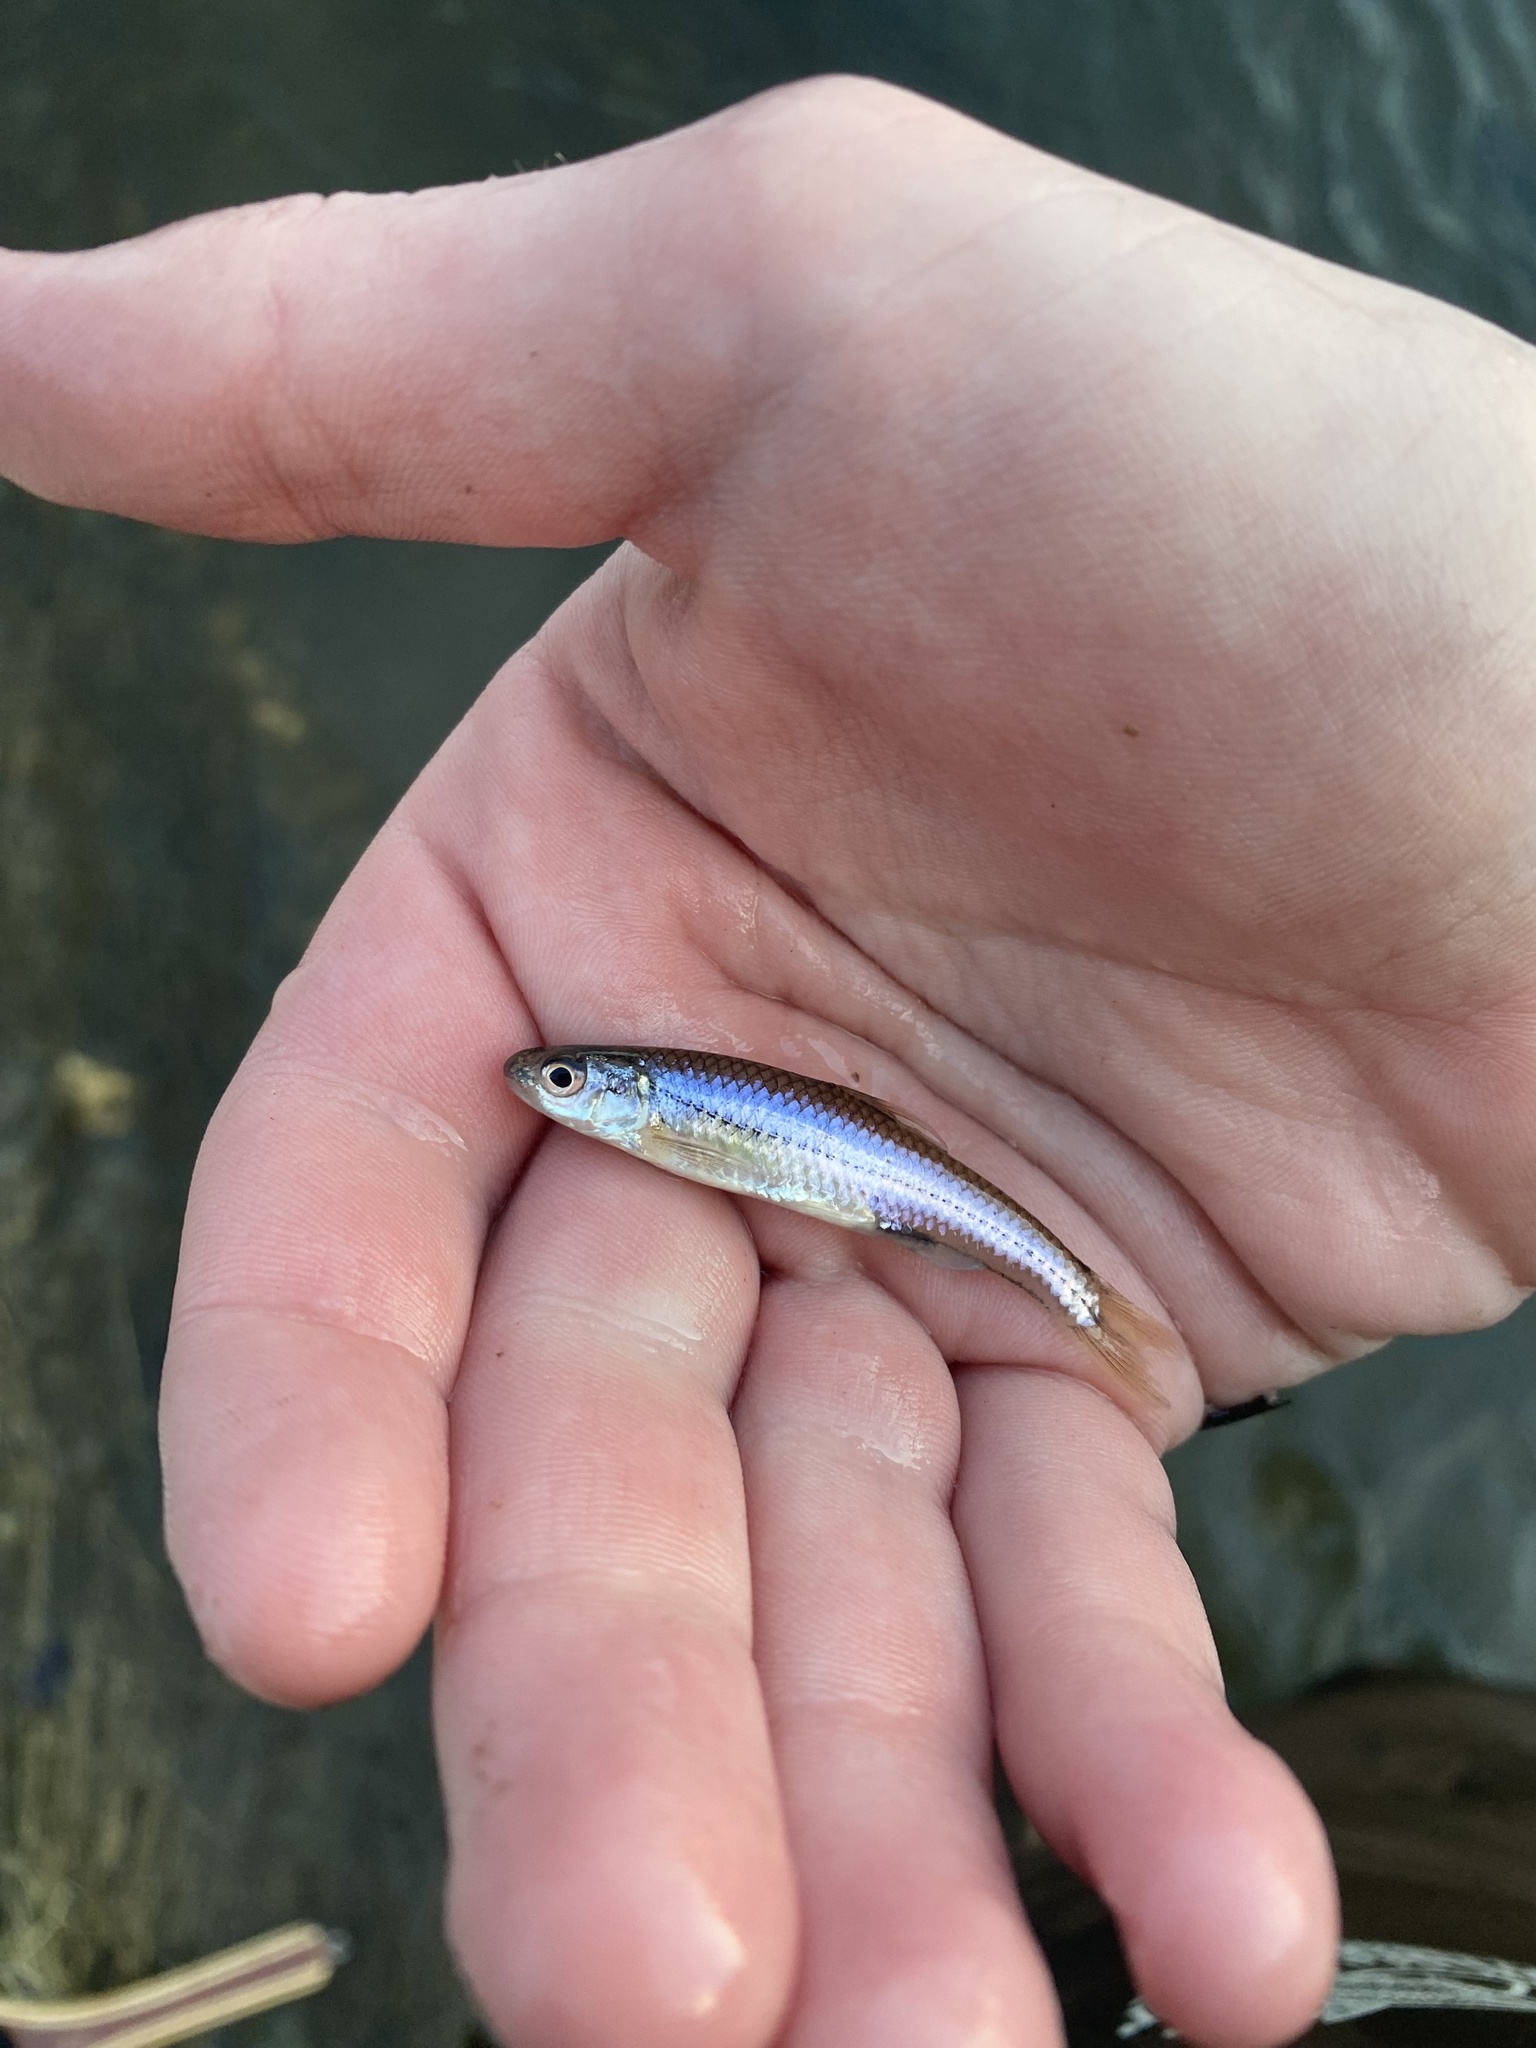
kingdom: Animalia
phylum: Chordata
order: Cypriniformes
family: Cyprinidae
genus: Notropis
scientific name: Notropis
